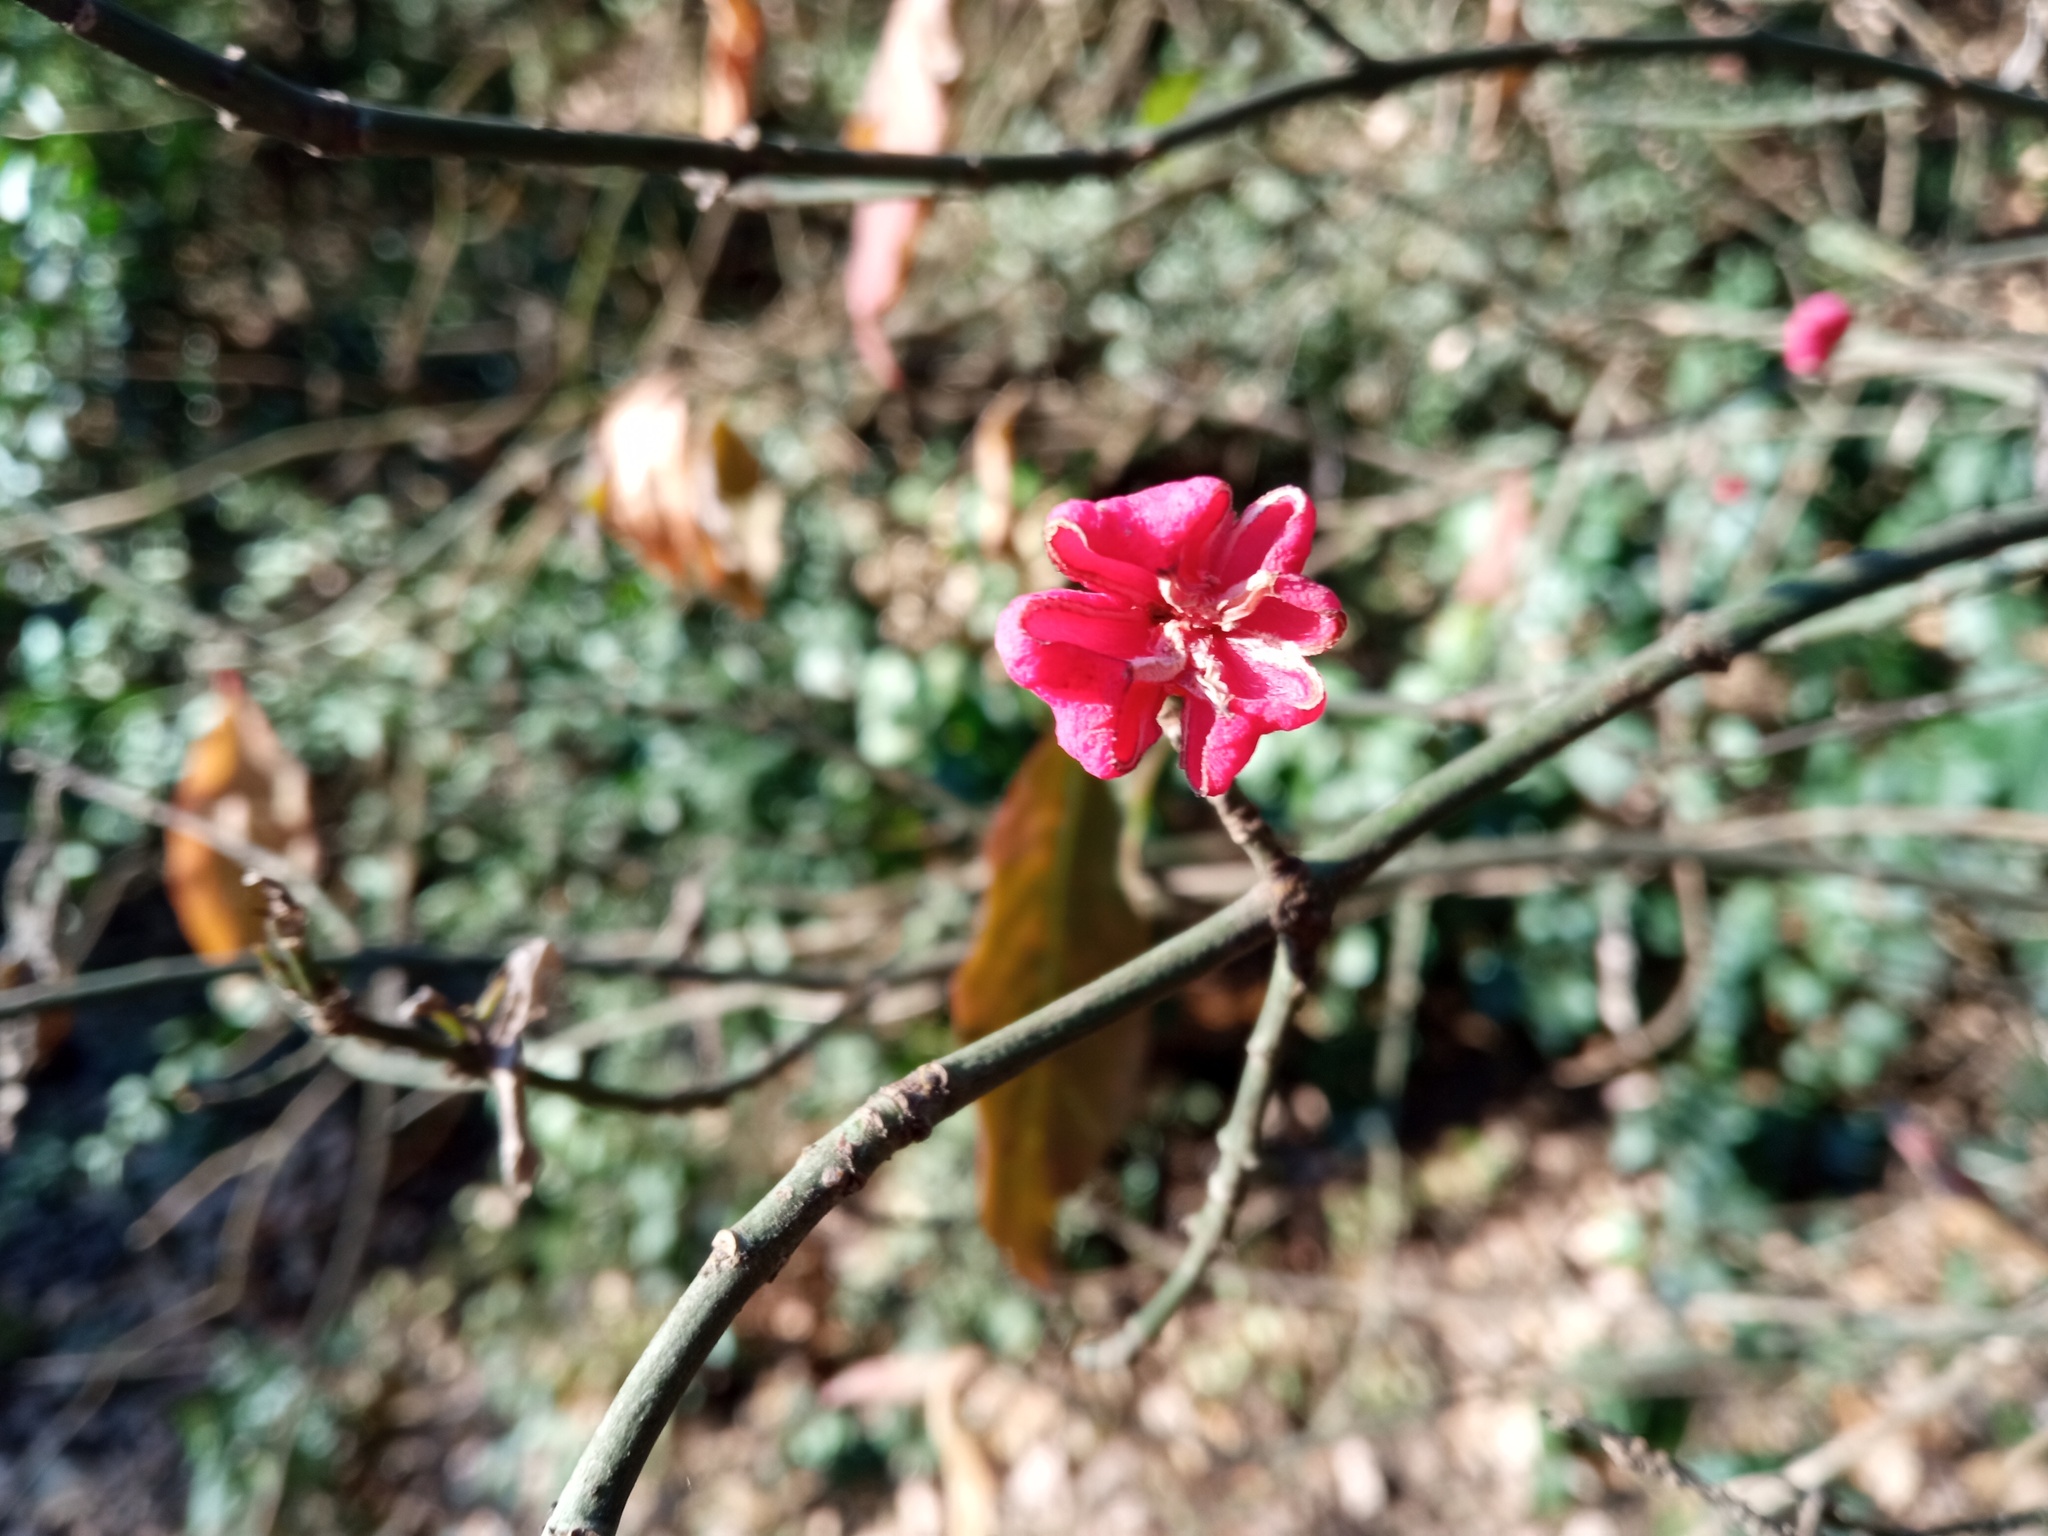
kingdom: Plantae
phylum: Tracheophyta
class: Magnoliopsida
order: Celastrales
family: Celastraceae
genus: Euonymus
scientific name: Euonymus europaeus
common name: Spindle
